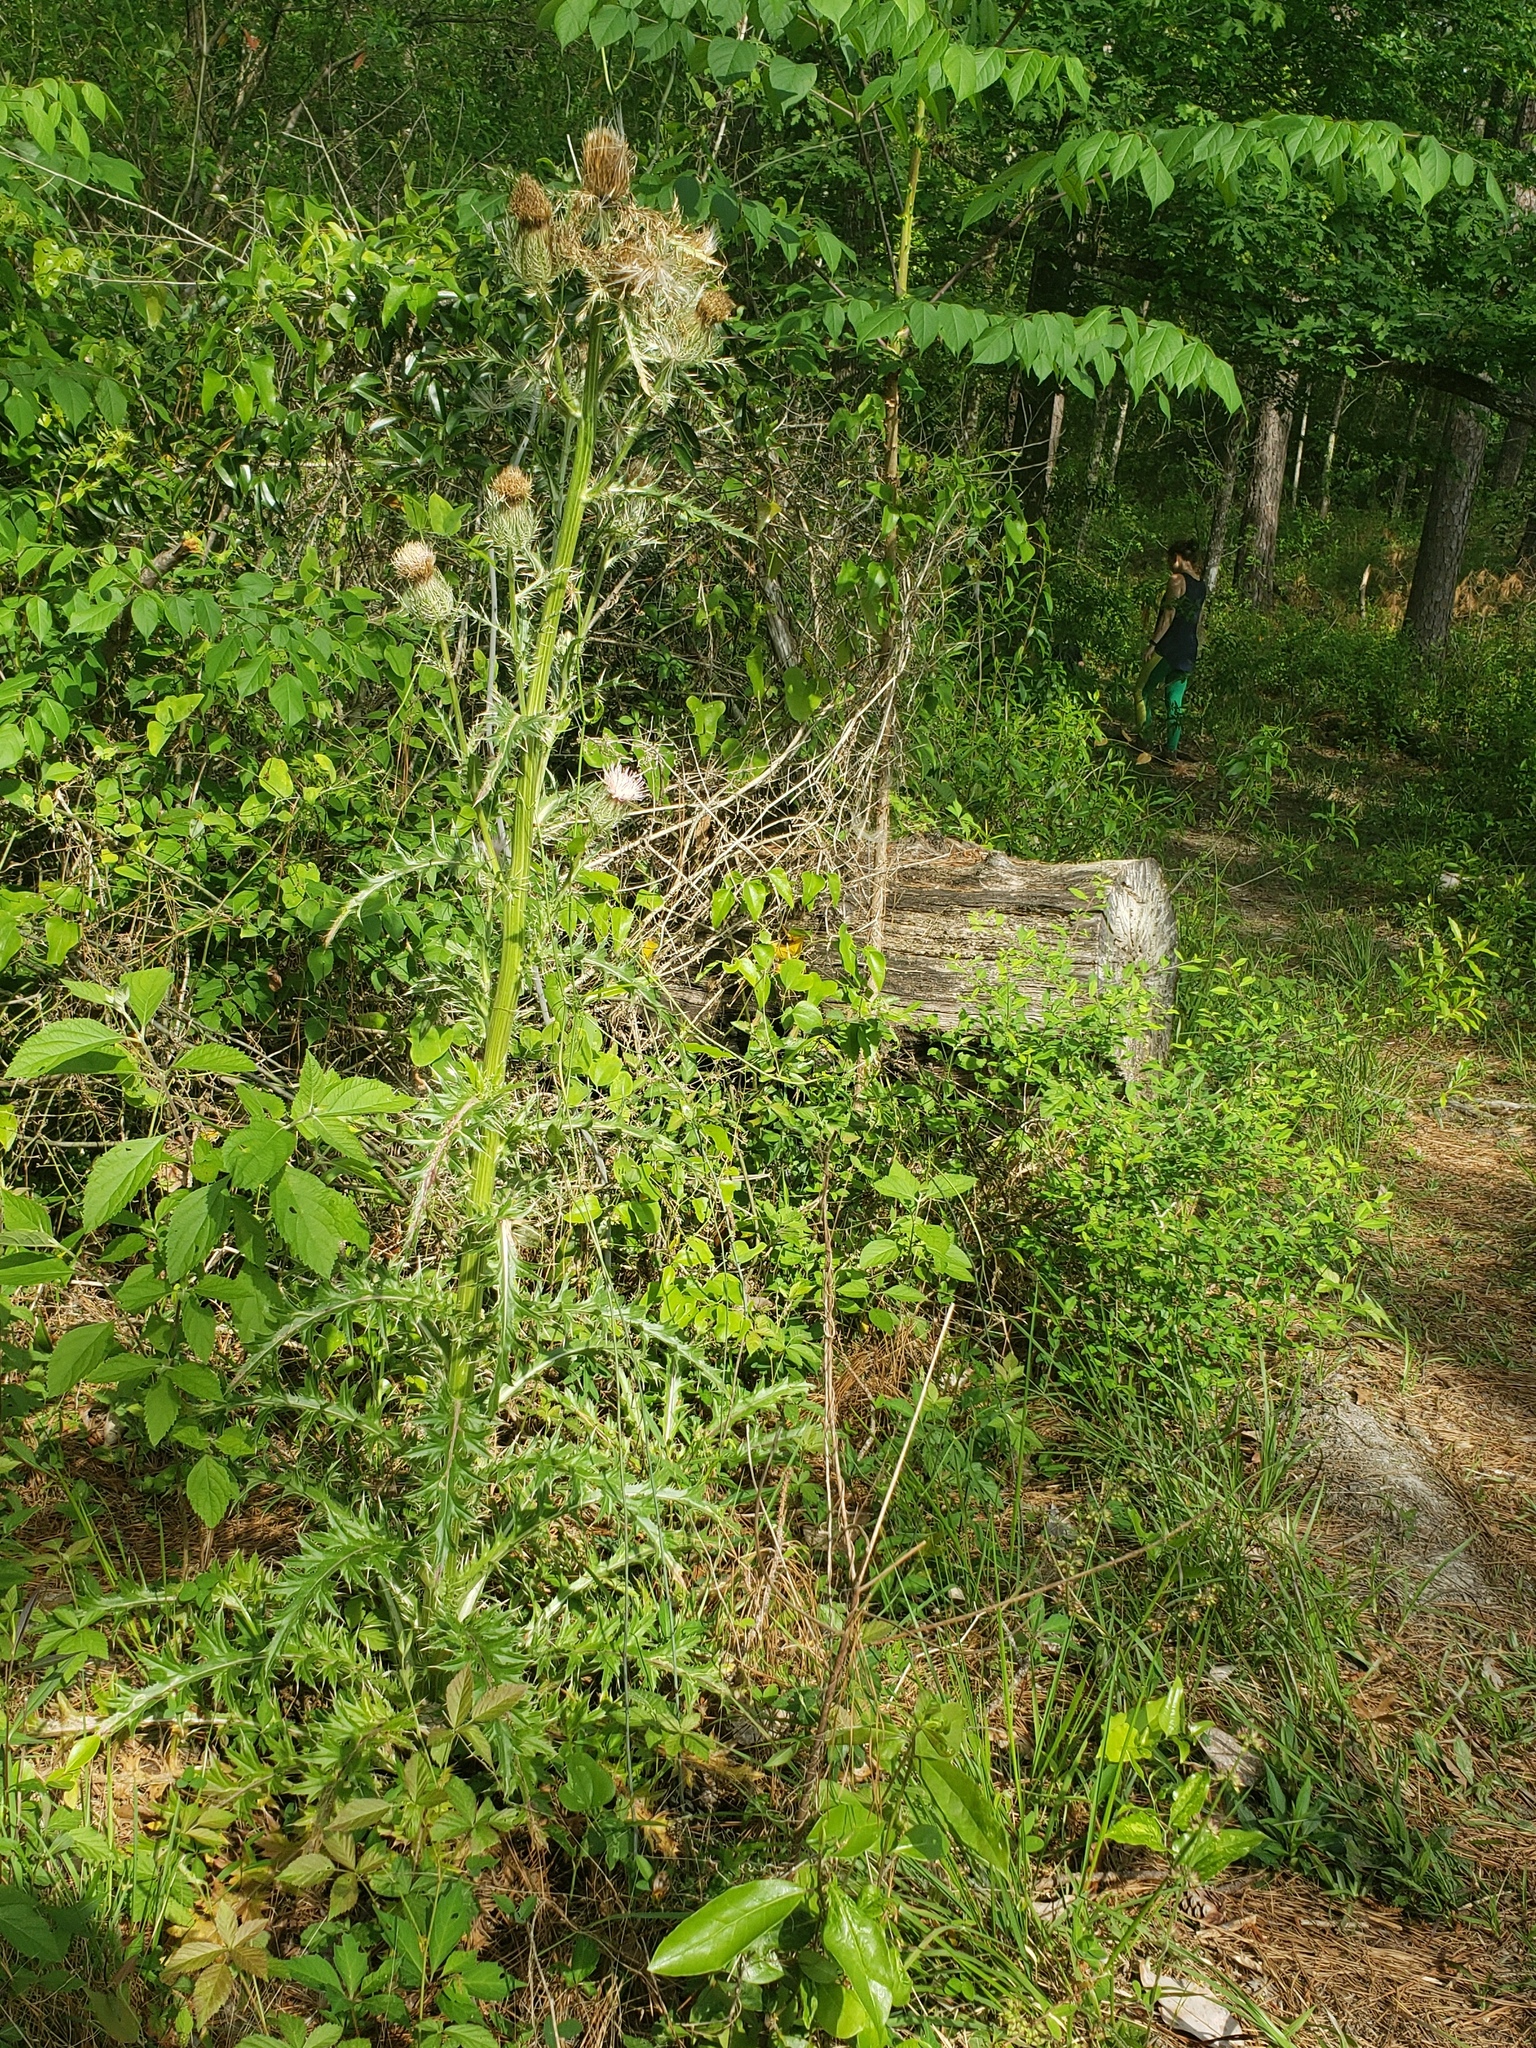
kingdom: Plantae
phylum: Tracheophyta
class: Magnoliopsida
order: Asterales
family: Asteraceae
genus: Cirsium
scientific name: Cirsium horridulum
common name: Bristly thistle
